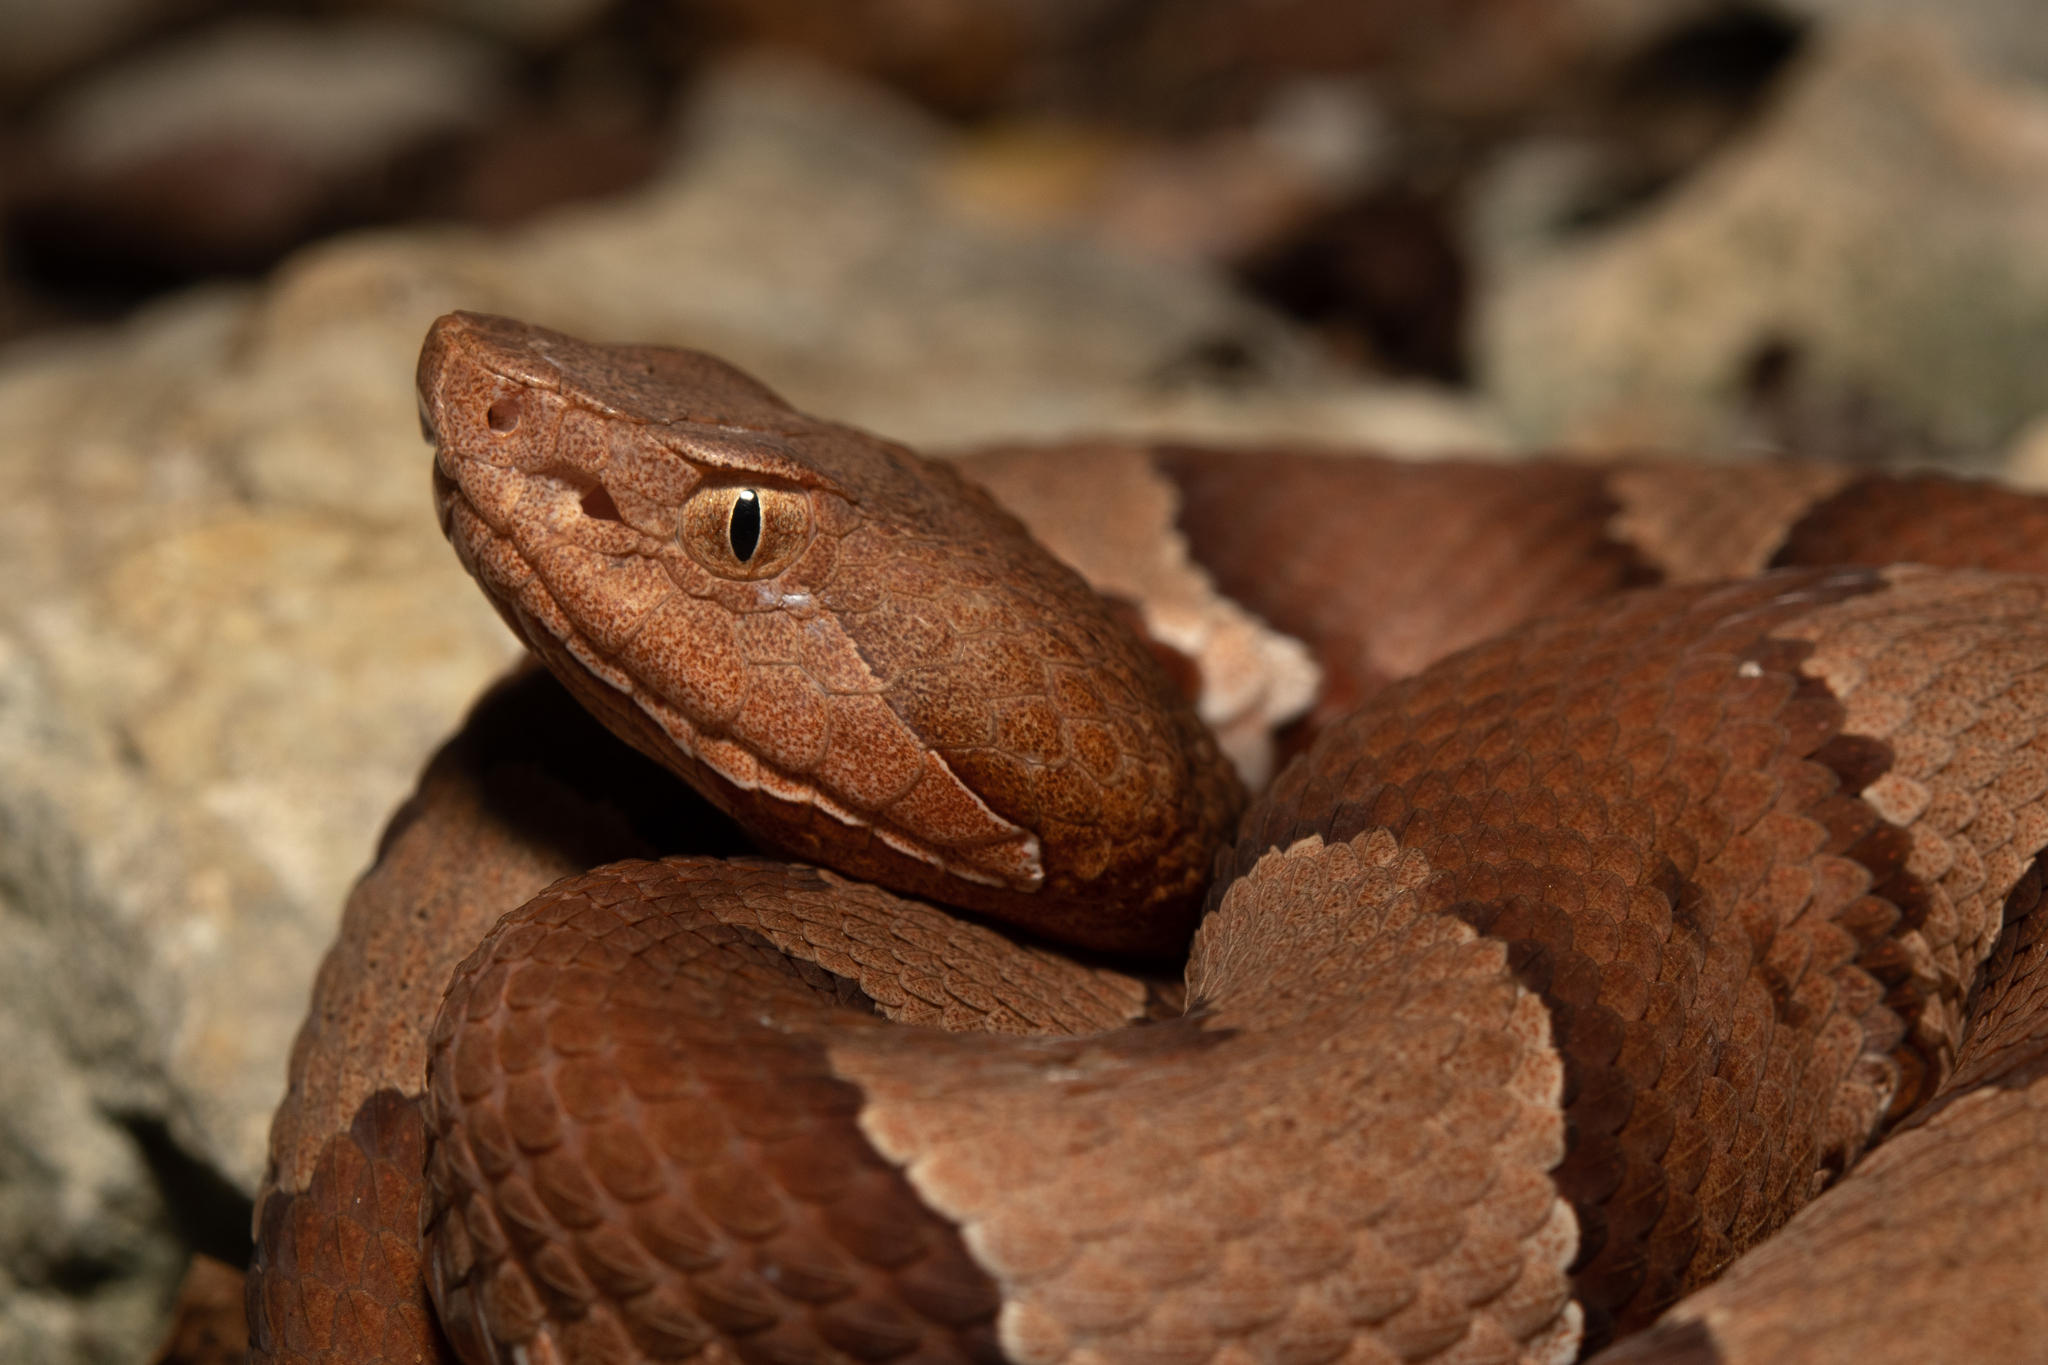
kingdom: Animalia
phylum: Chordata
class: Squamata
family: Viperidae
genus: Agkistrodon
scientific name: Agkistrodon laticinctus
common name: Broad-banded copperhead
